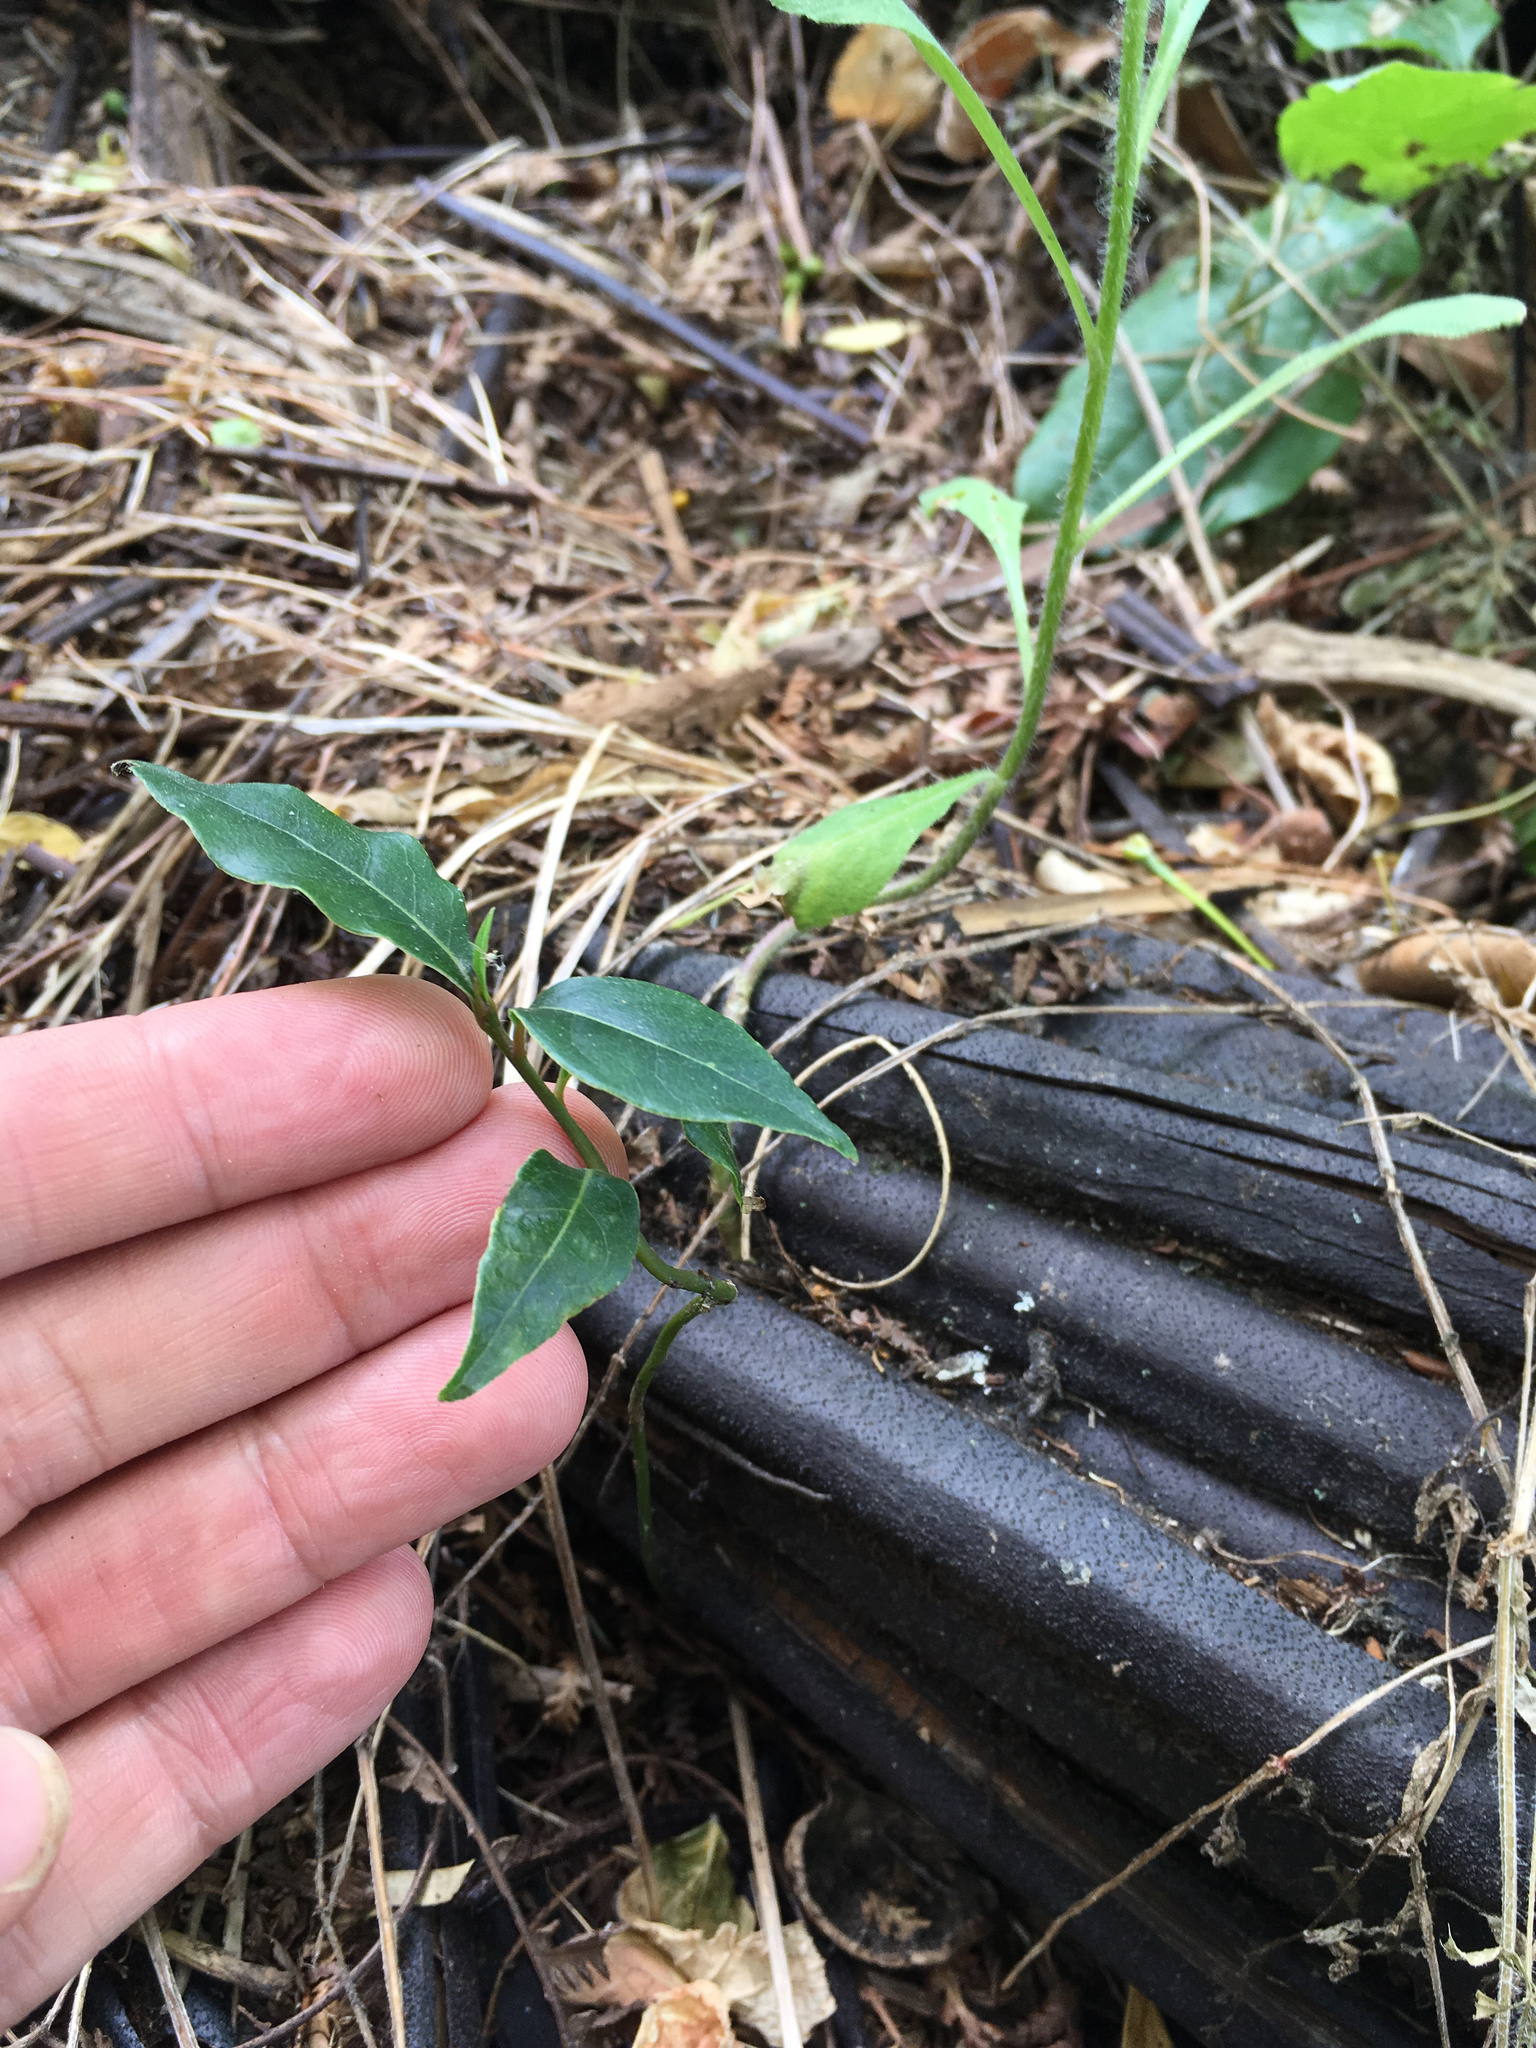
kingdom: Plantae
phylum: Tracheophyta
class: Magnoliopsida
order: Rosales
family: Rosaceae
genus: Prunus
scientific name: Prunus lusitanica
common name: Portugal laurel
